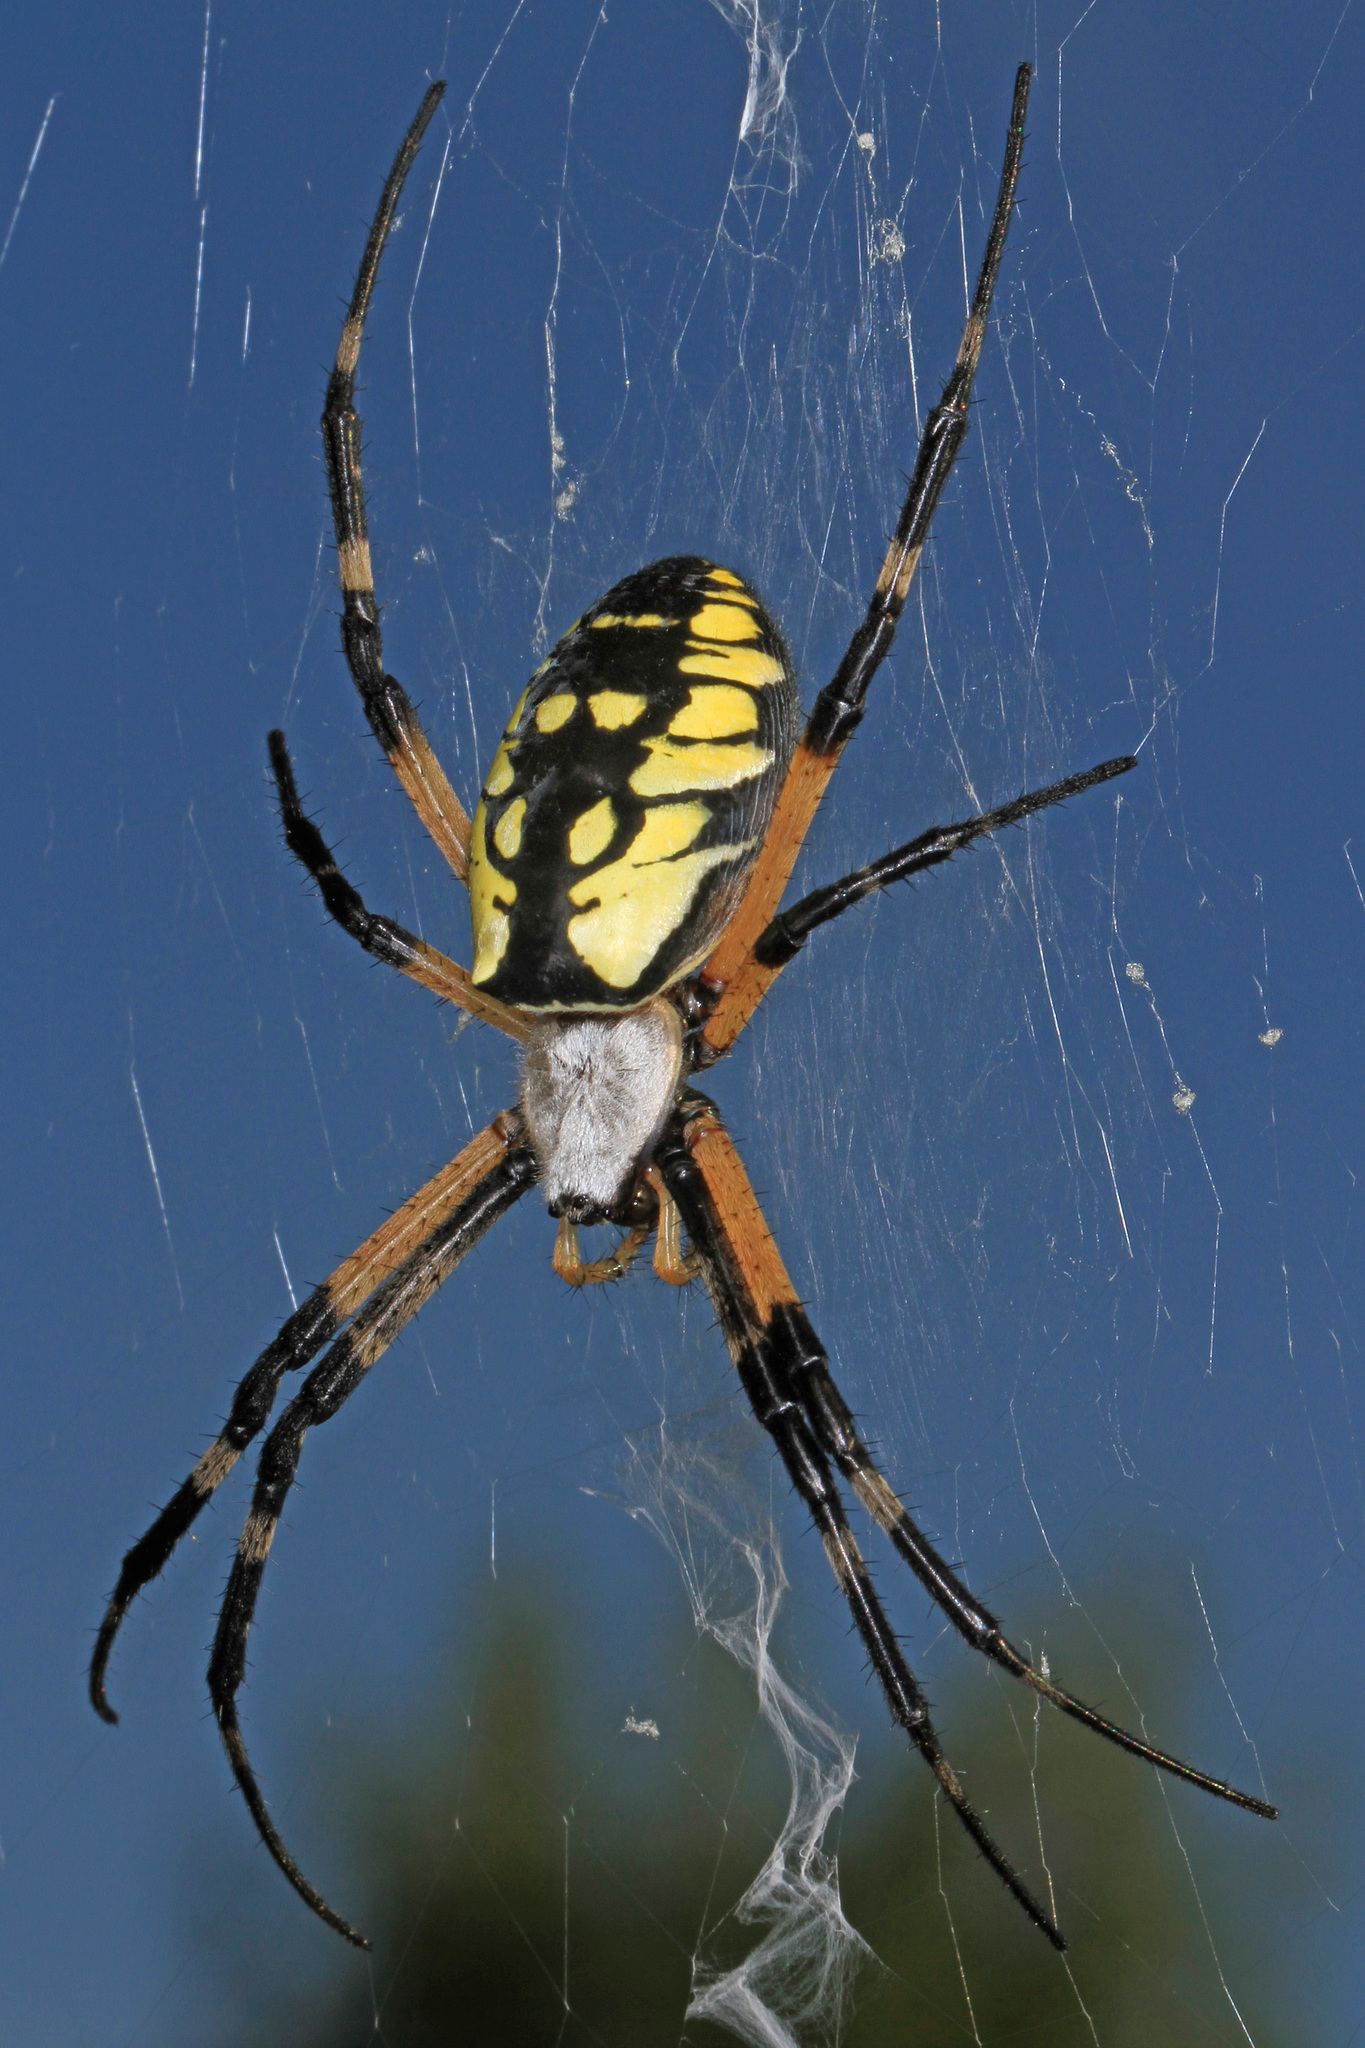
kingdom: Animalia
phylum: Arthropoda
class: Arachnida
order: Araneae
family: Araneidae
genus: Argiope
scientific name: Argiope aurantia
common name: Orb weavers
